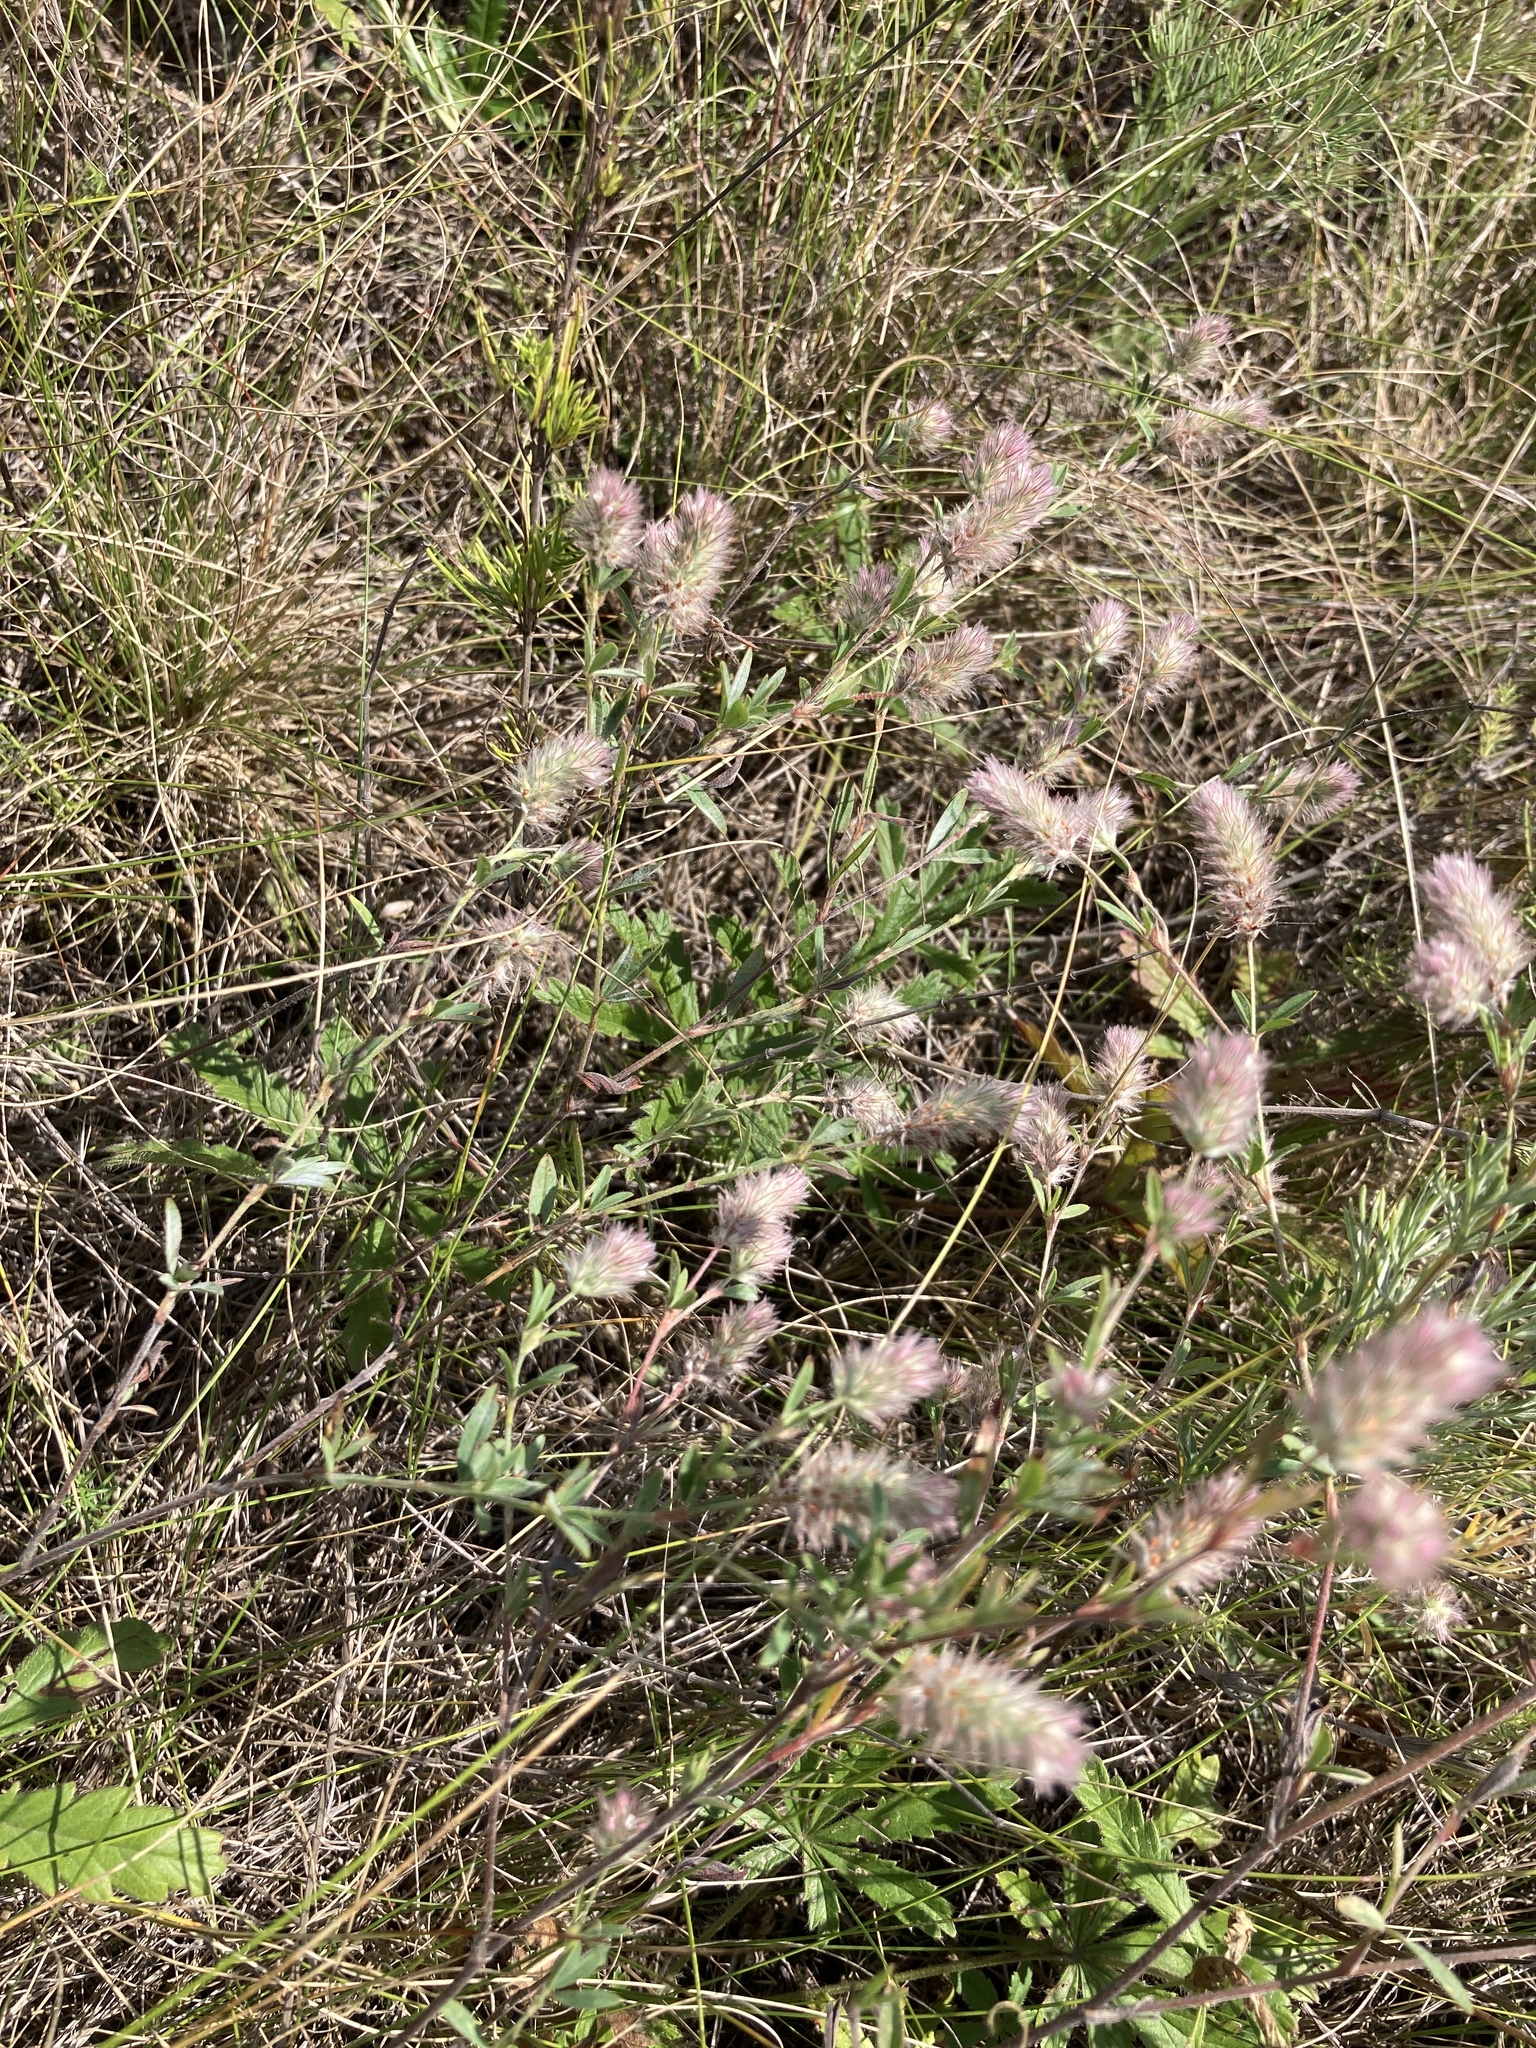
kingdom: Plantae
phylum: Tracheophyta
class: Magnoliopsida
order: Fabales
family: Fabaceae
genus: Trifolium
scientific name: Trifolium arvense
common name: Hare's-foot clover
